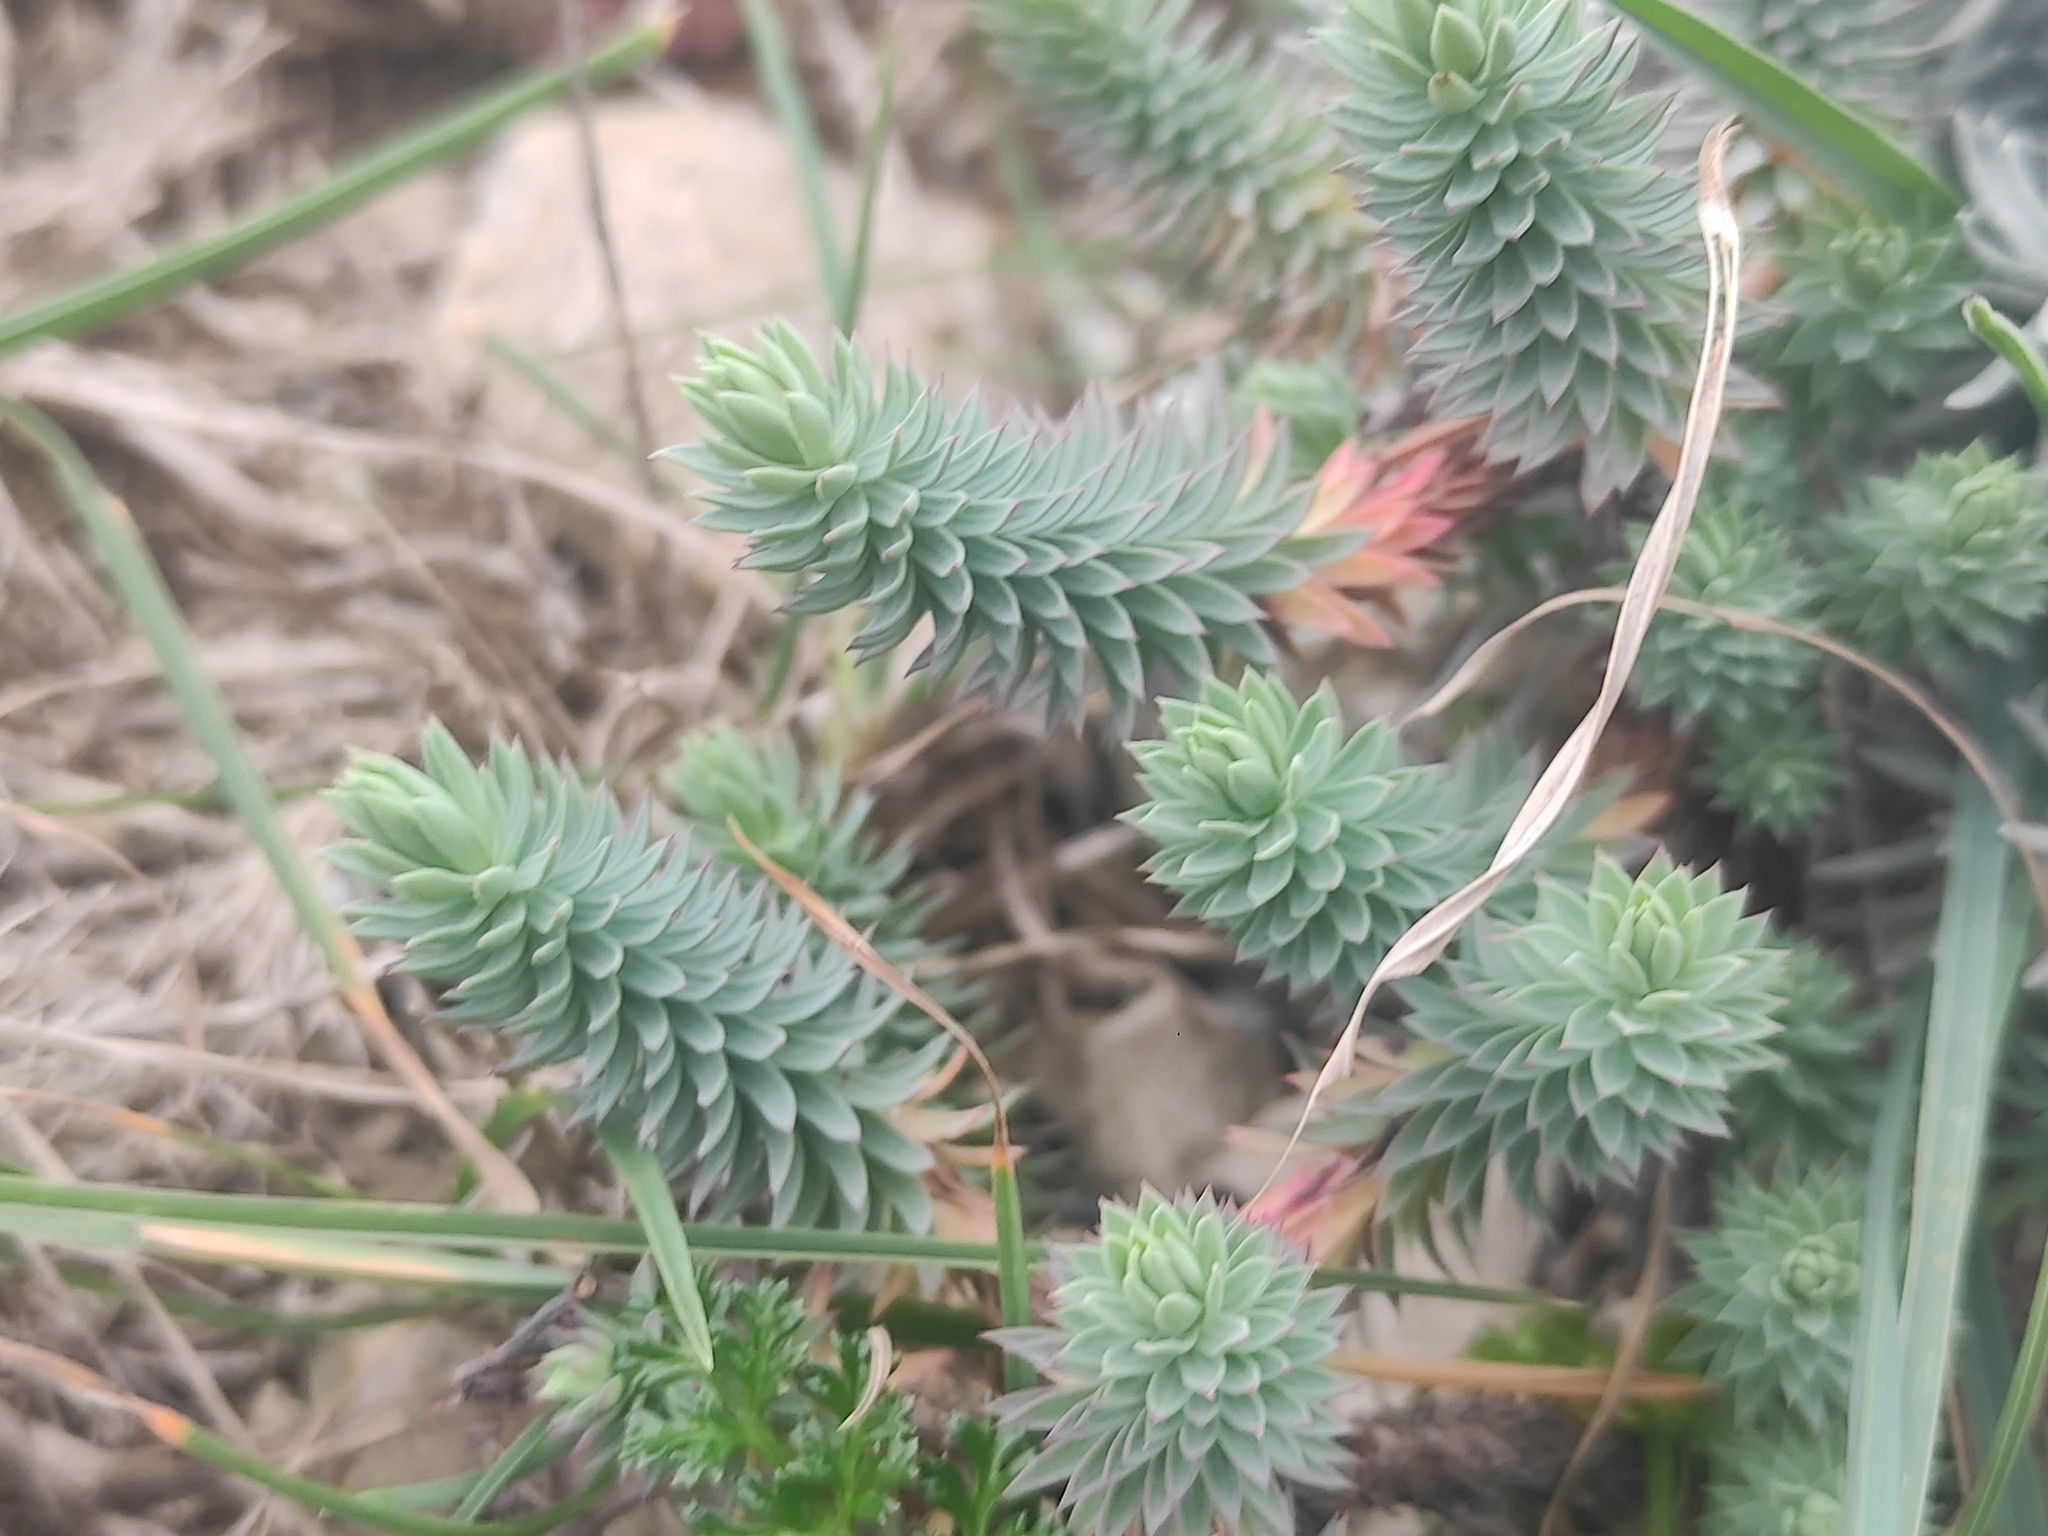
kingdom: Plantae
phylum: Tracheophyta
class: Magnoliopsida
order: Malpighiales
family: Euphorbiaceae
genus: Euphorbia
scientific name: Euphorbia pithyusa
